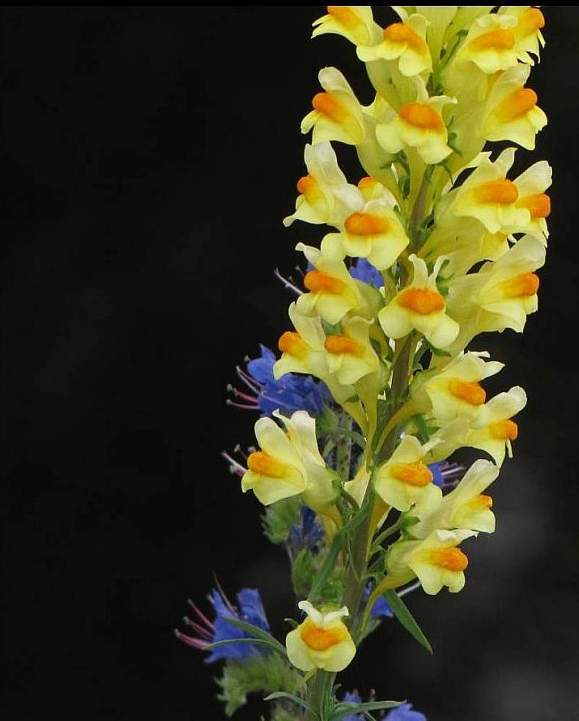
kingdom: Plantae
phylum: Tracheophyta
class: Magnoliopsida
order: Lamiales
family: Plantaginaceae
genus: Linaria
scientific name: Linaria vulgaris
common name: Butter and eggs
